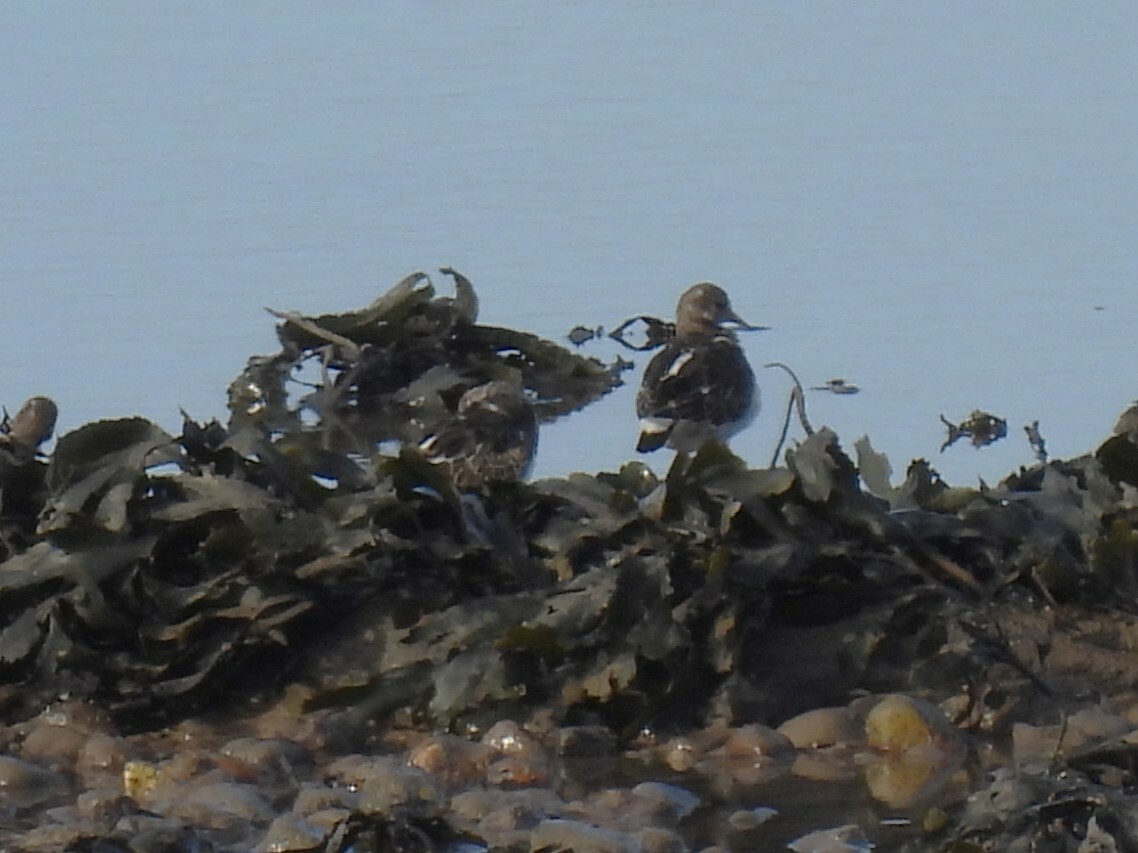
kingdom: Animalia
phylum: Chordata
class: Aves
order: Charadriiformes
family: Scolopacidae
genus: Arenaria
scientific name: Arenaria interpres
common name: Ruddy turnstone
